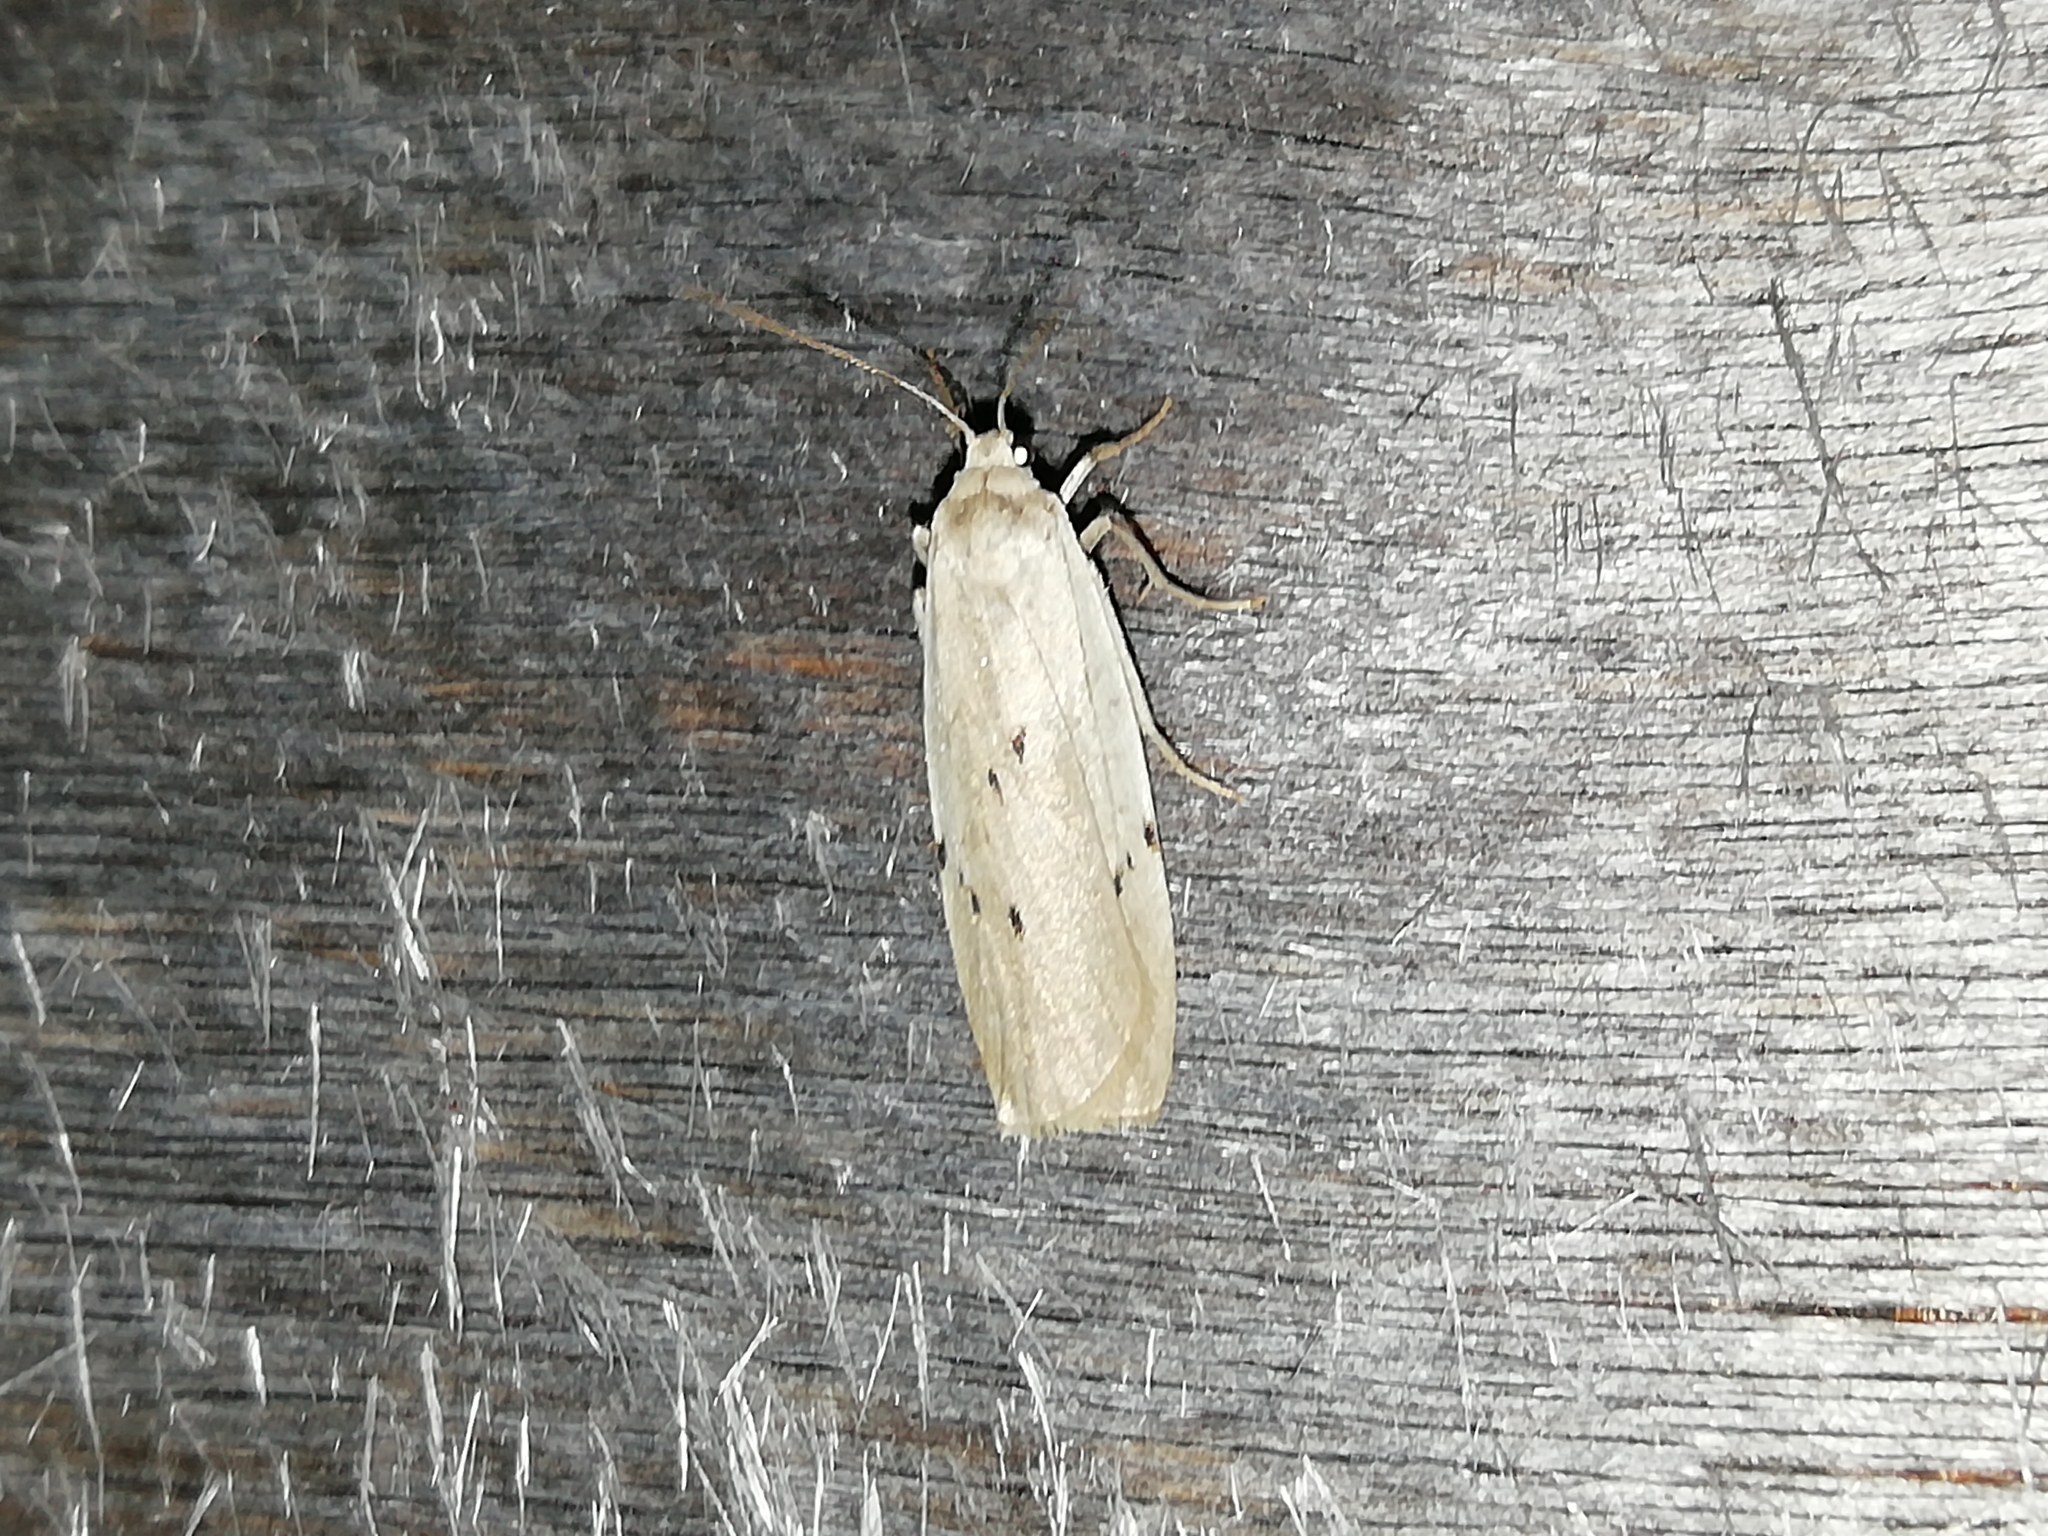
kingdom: Animalia
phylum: Arthropoda
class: Insecta
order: Lepidoptera
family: Erebidae
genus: Pelosia
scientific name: Pelosia muscerda
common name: Dotted footman
